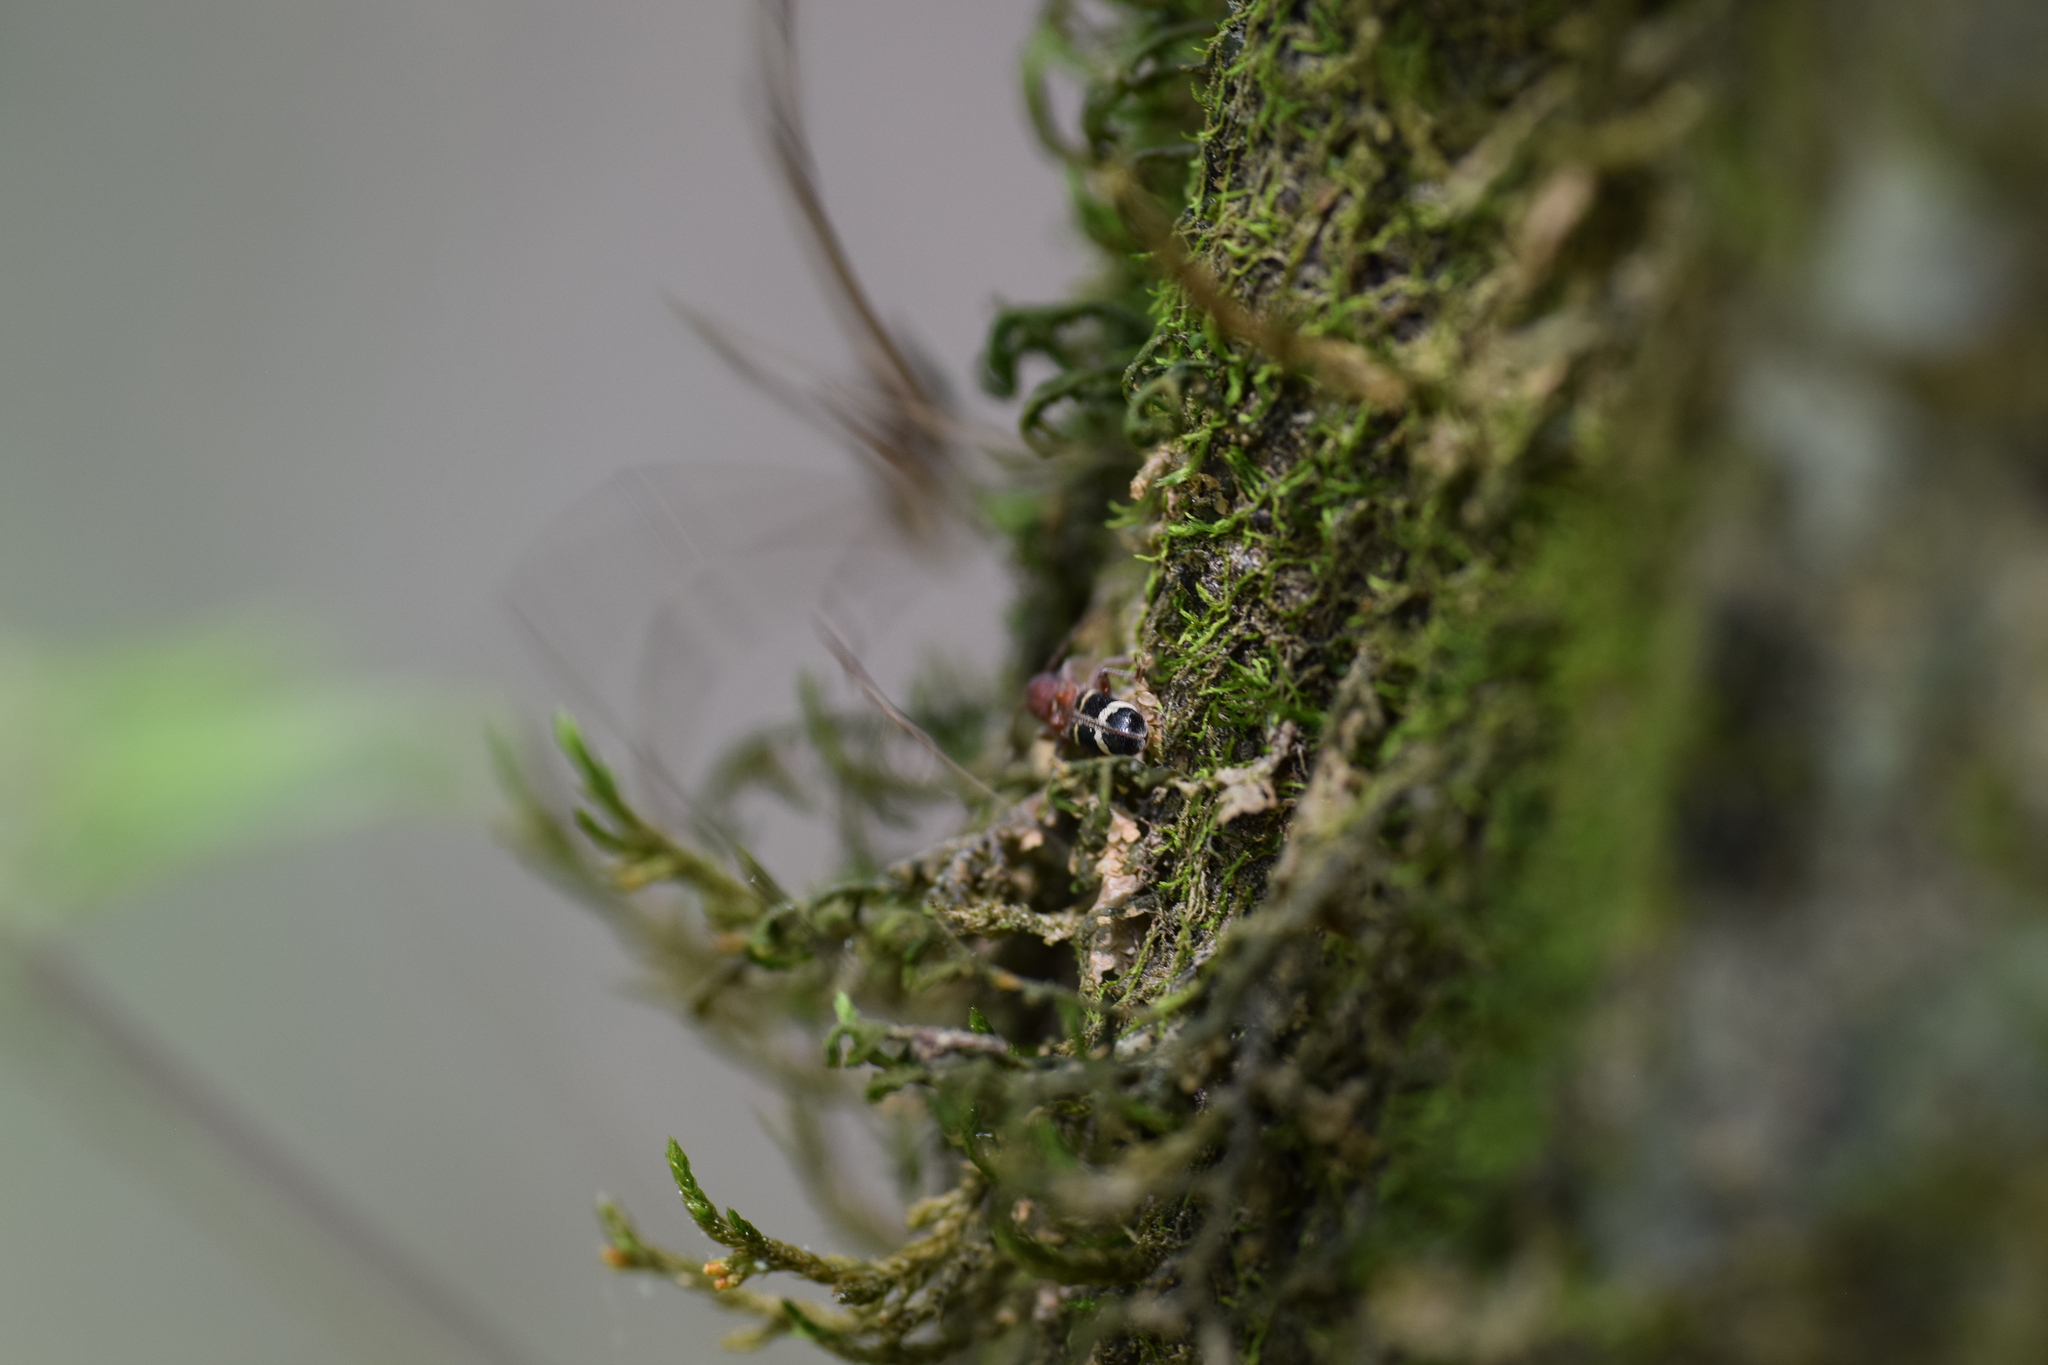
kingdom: Animalia
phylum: Arthropoda
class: Insecta
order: Coleoptera
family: Cerambycidae
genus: Psenocerus
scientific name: Psenocerus supernotatus
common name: Currant-tip borer
